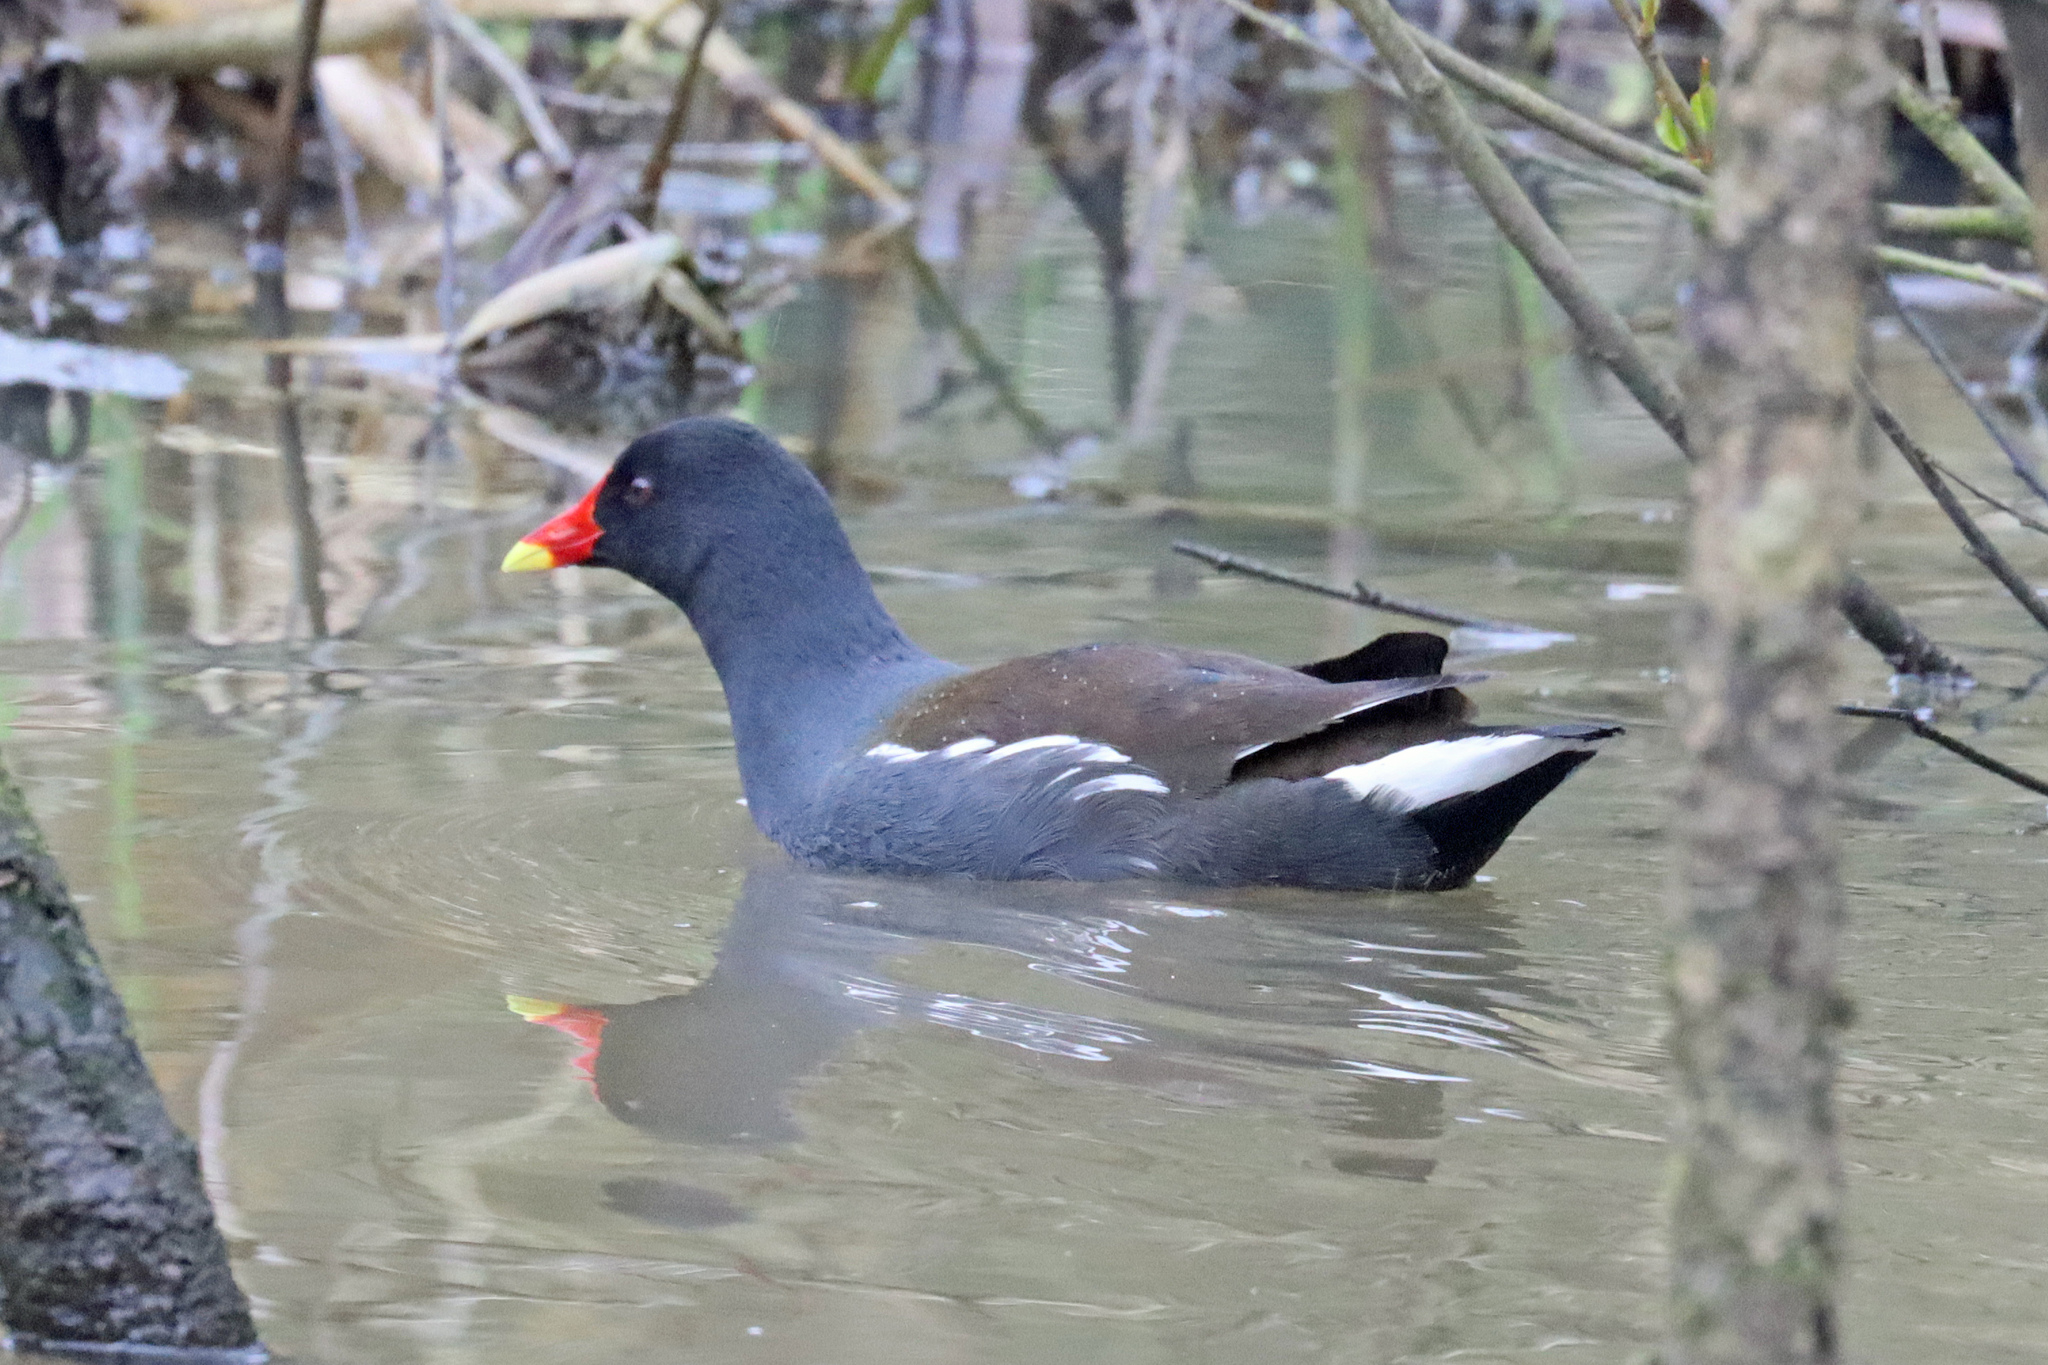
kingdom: Animalia
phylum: Chordata
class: Aves
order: Gruiformes
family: Rallidae
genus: Gallinula
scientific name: Gallinula chloropus
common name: Common moorhen
